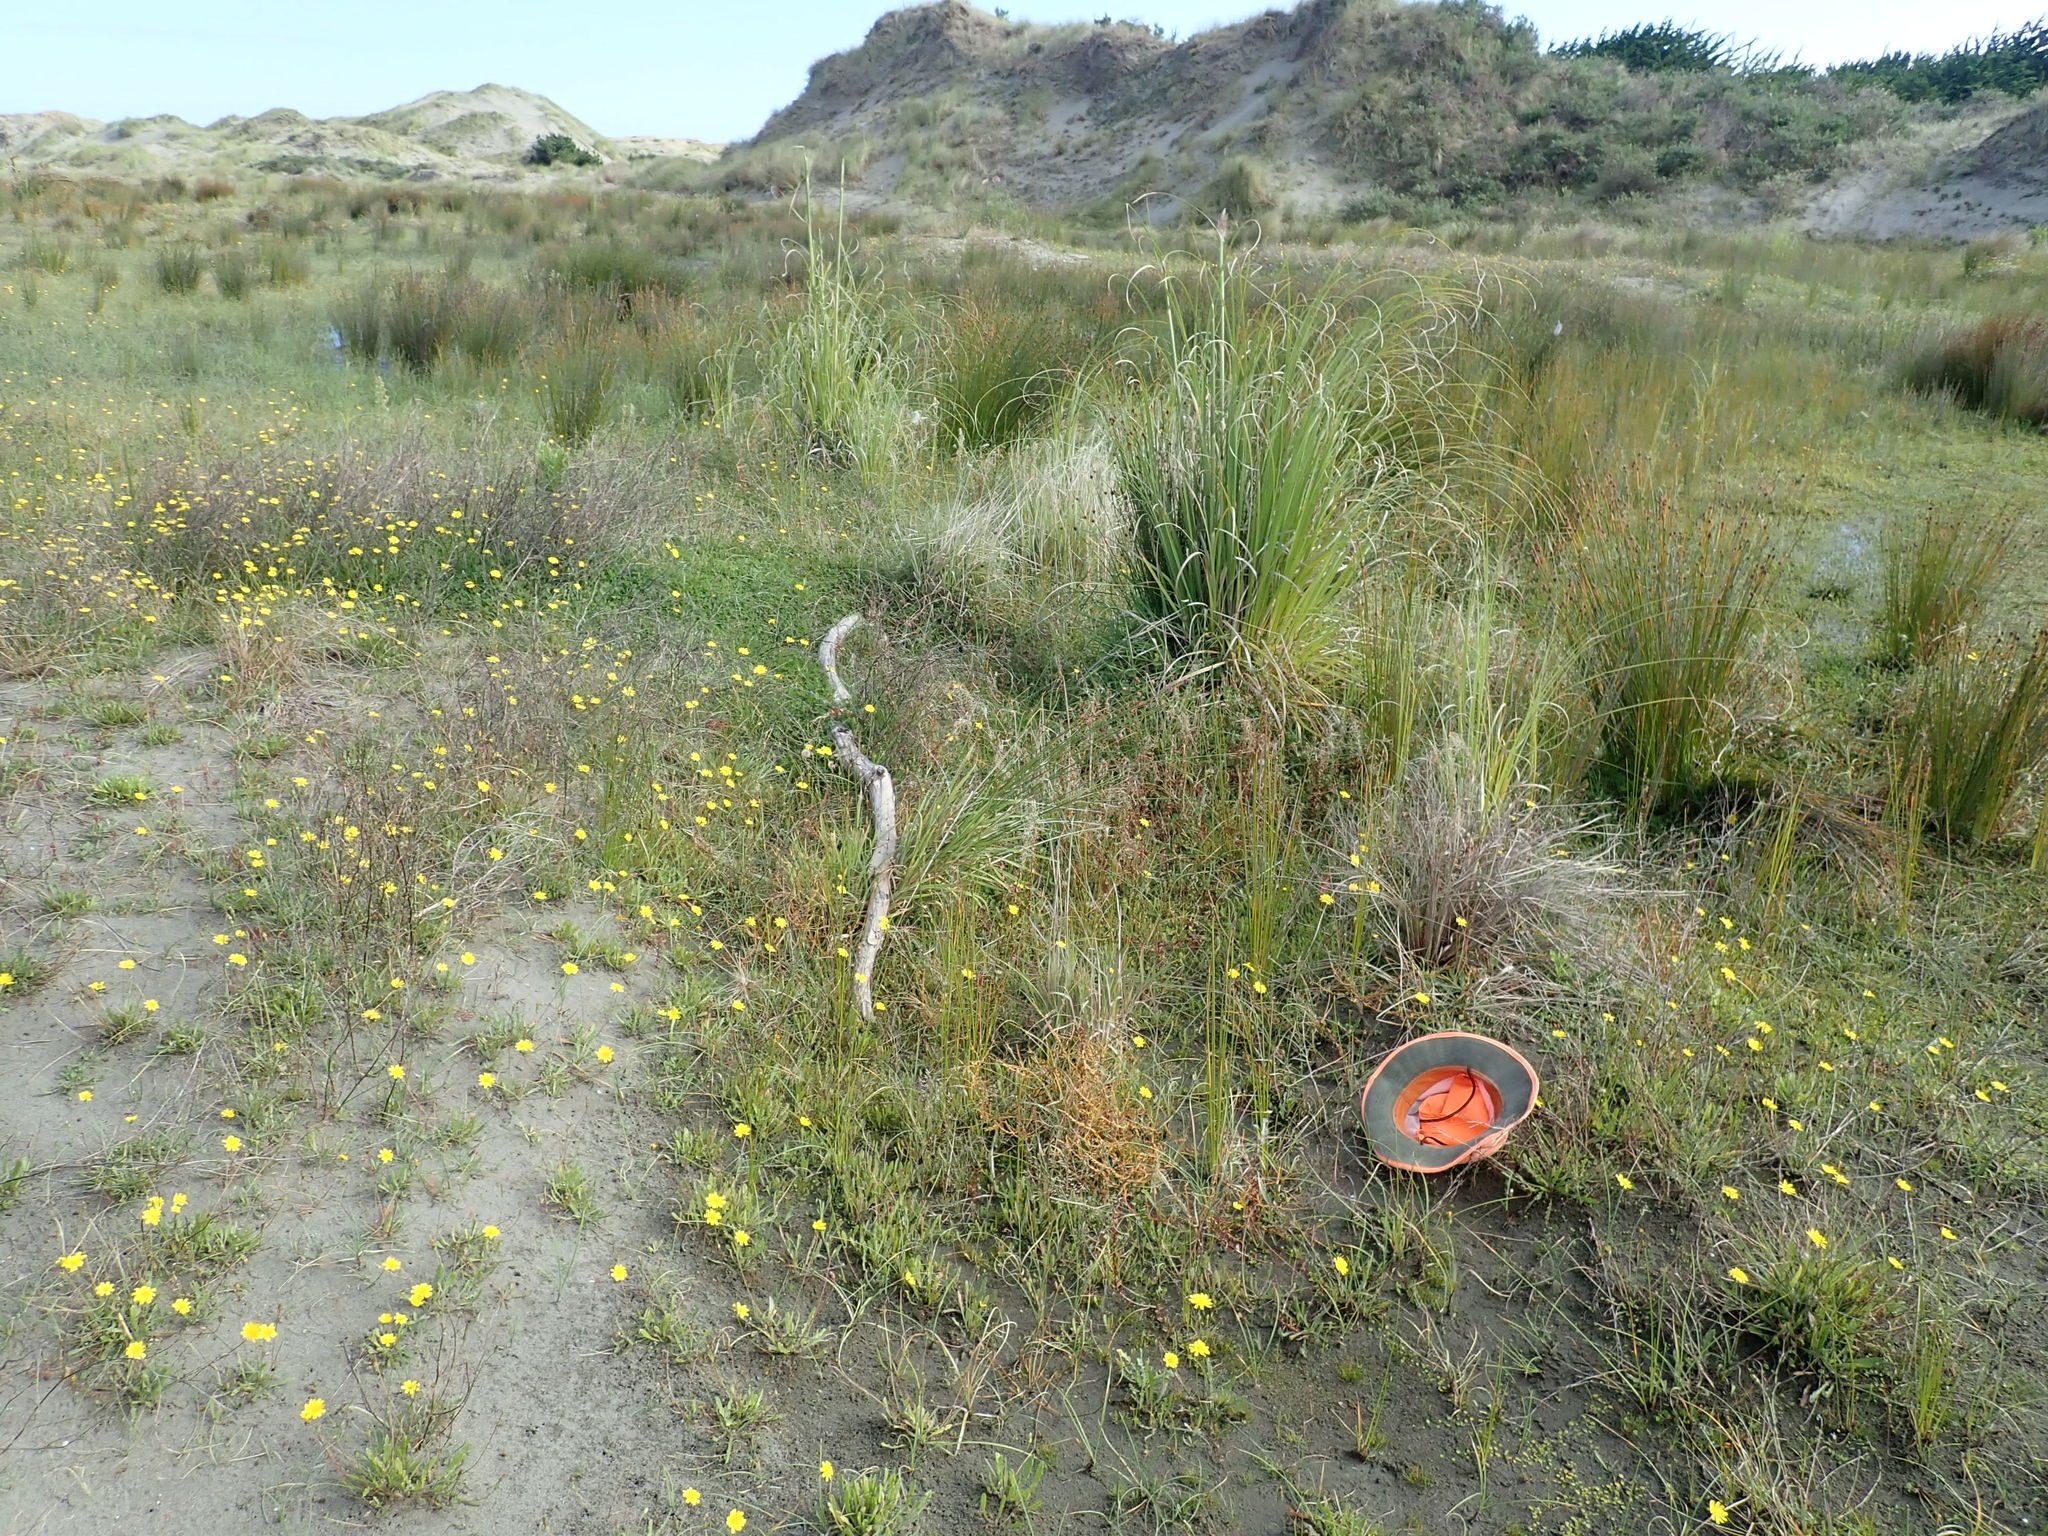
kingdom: Plantae
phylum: Tracheophyta
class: Magnoliopsida
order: Gentianales
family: Rubiaceae
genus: Coprosma
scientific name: Coprosma acerosa
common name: Sand coprosma
